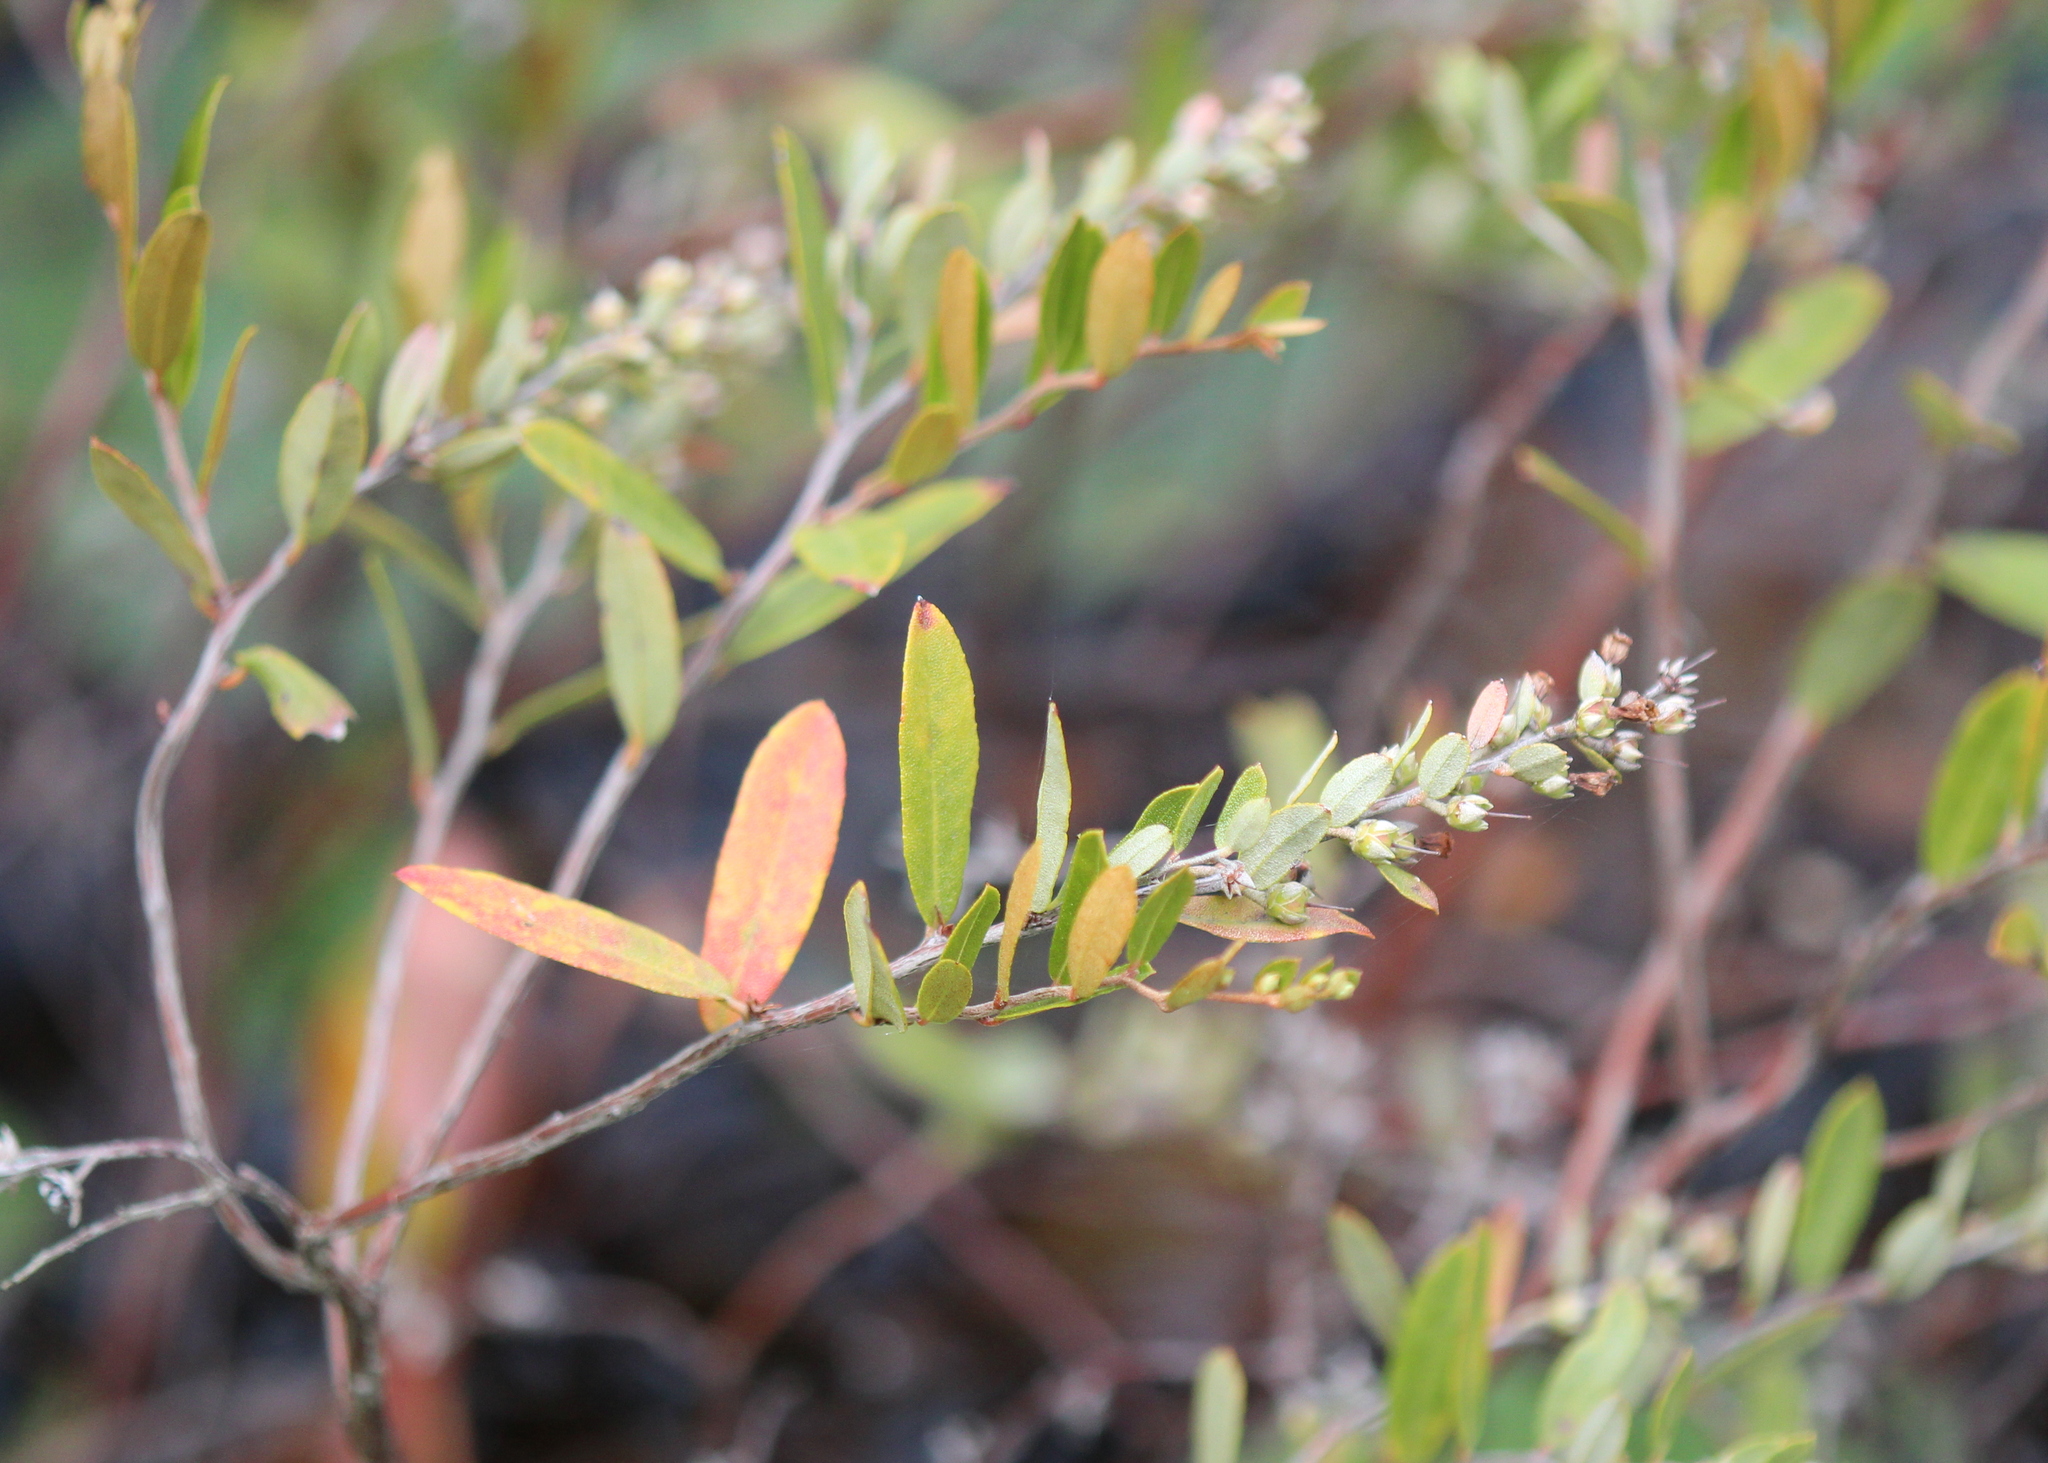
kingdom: Plantae
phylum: Tracheophyta
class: Magnoliopsida
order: Ericales
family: Ericaceae
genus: Chamaedaphne
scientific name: Chamaedaphne calyculata
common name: Leatherleaf
